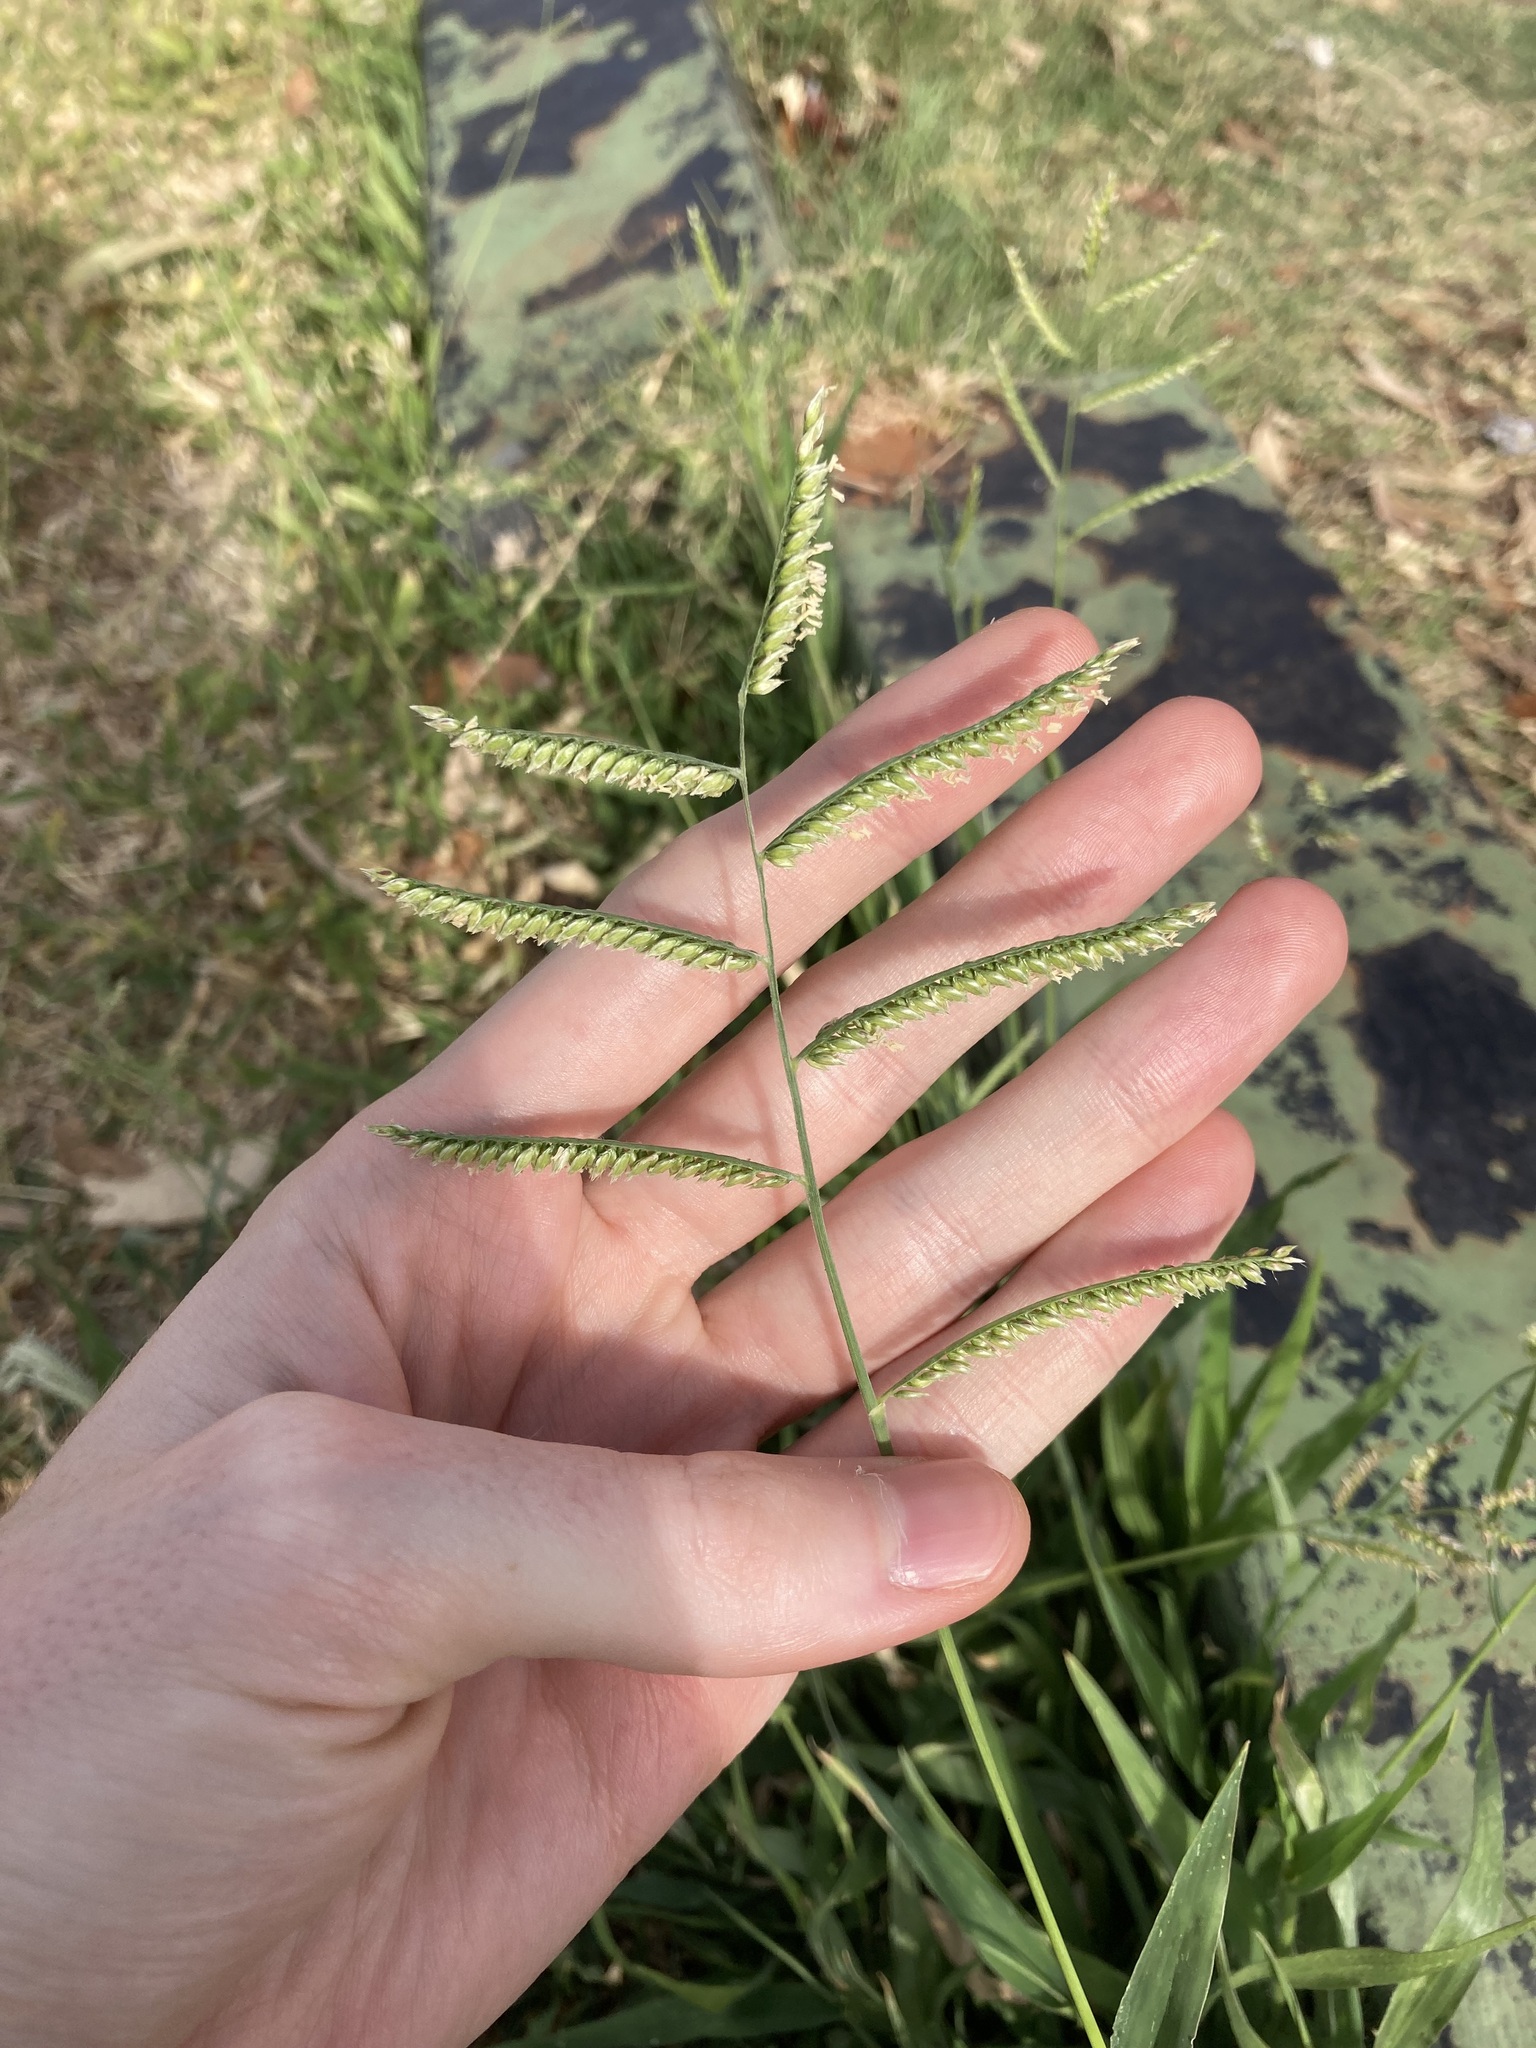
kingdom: Plantae
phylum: Tracheophyta
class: Liliopsida
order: Poales
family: Poaceae
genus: Urochloa
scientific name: Urochloa trichopus
